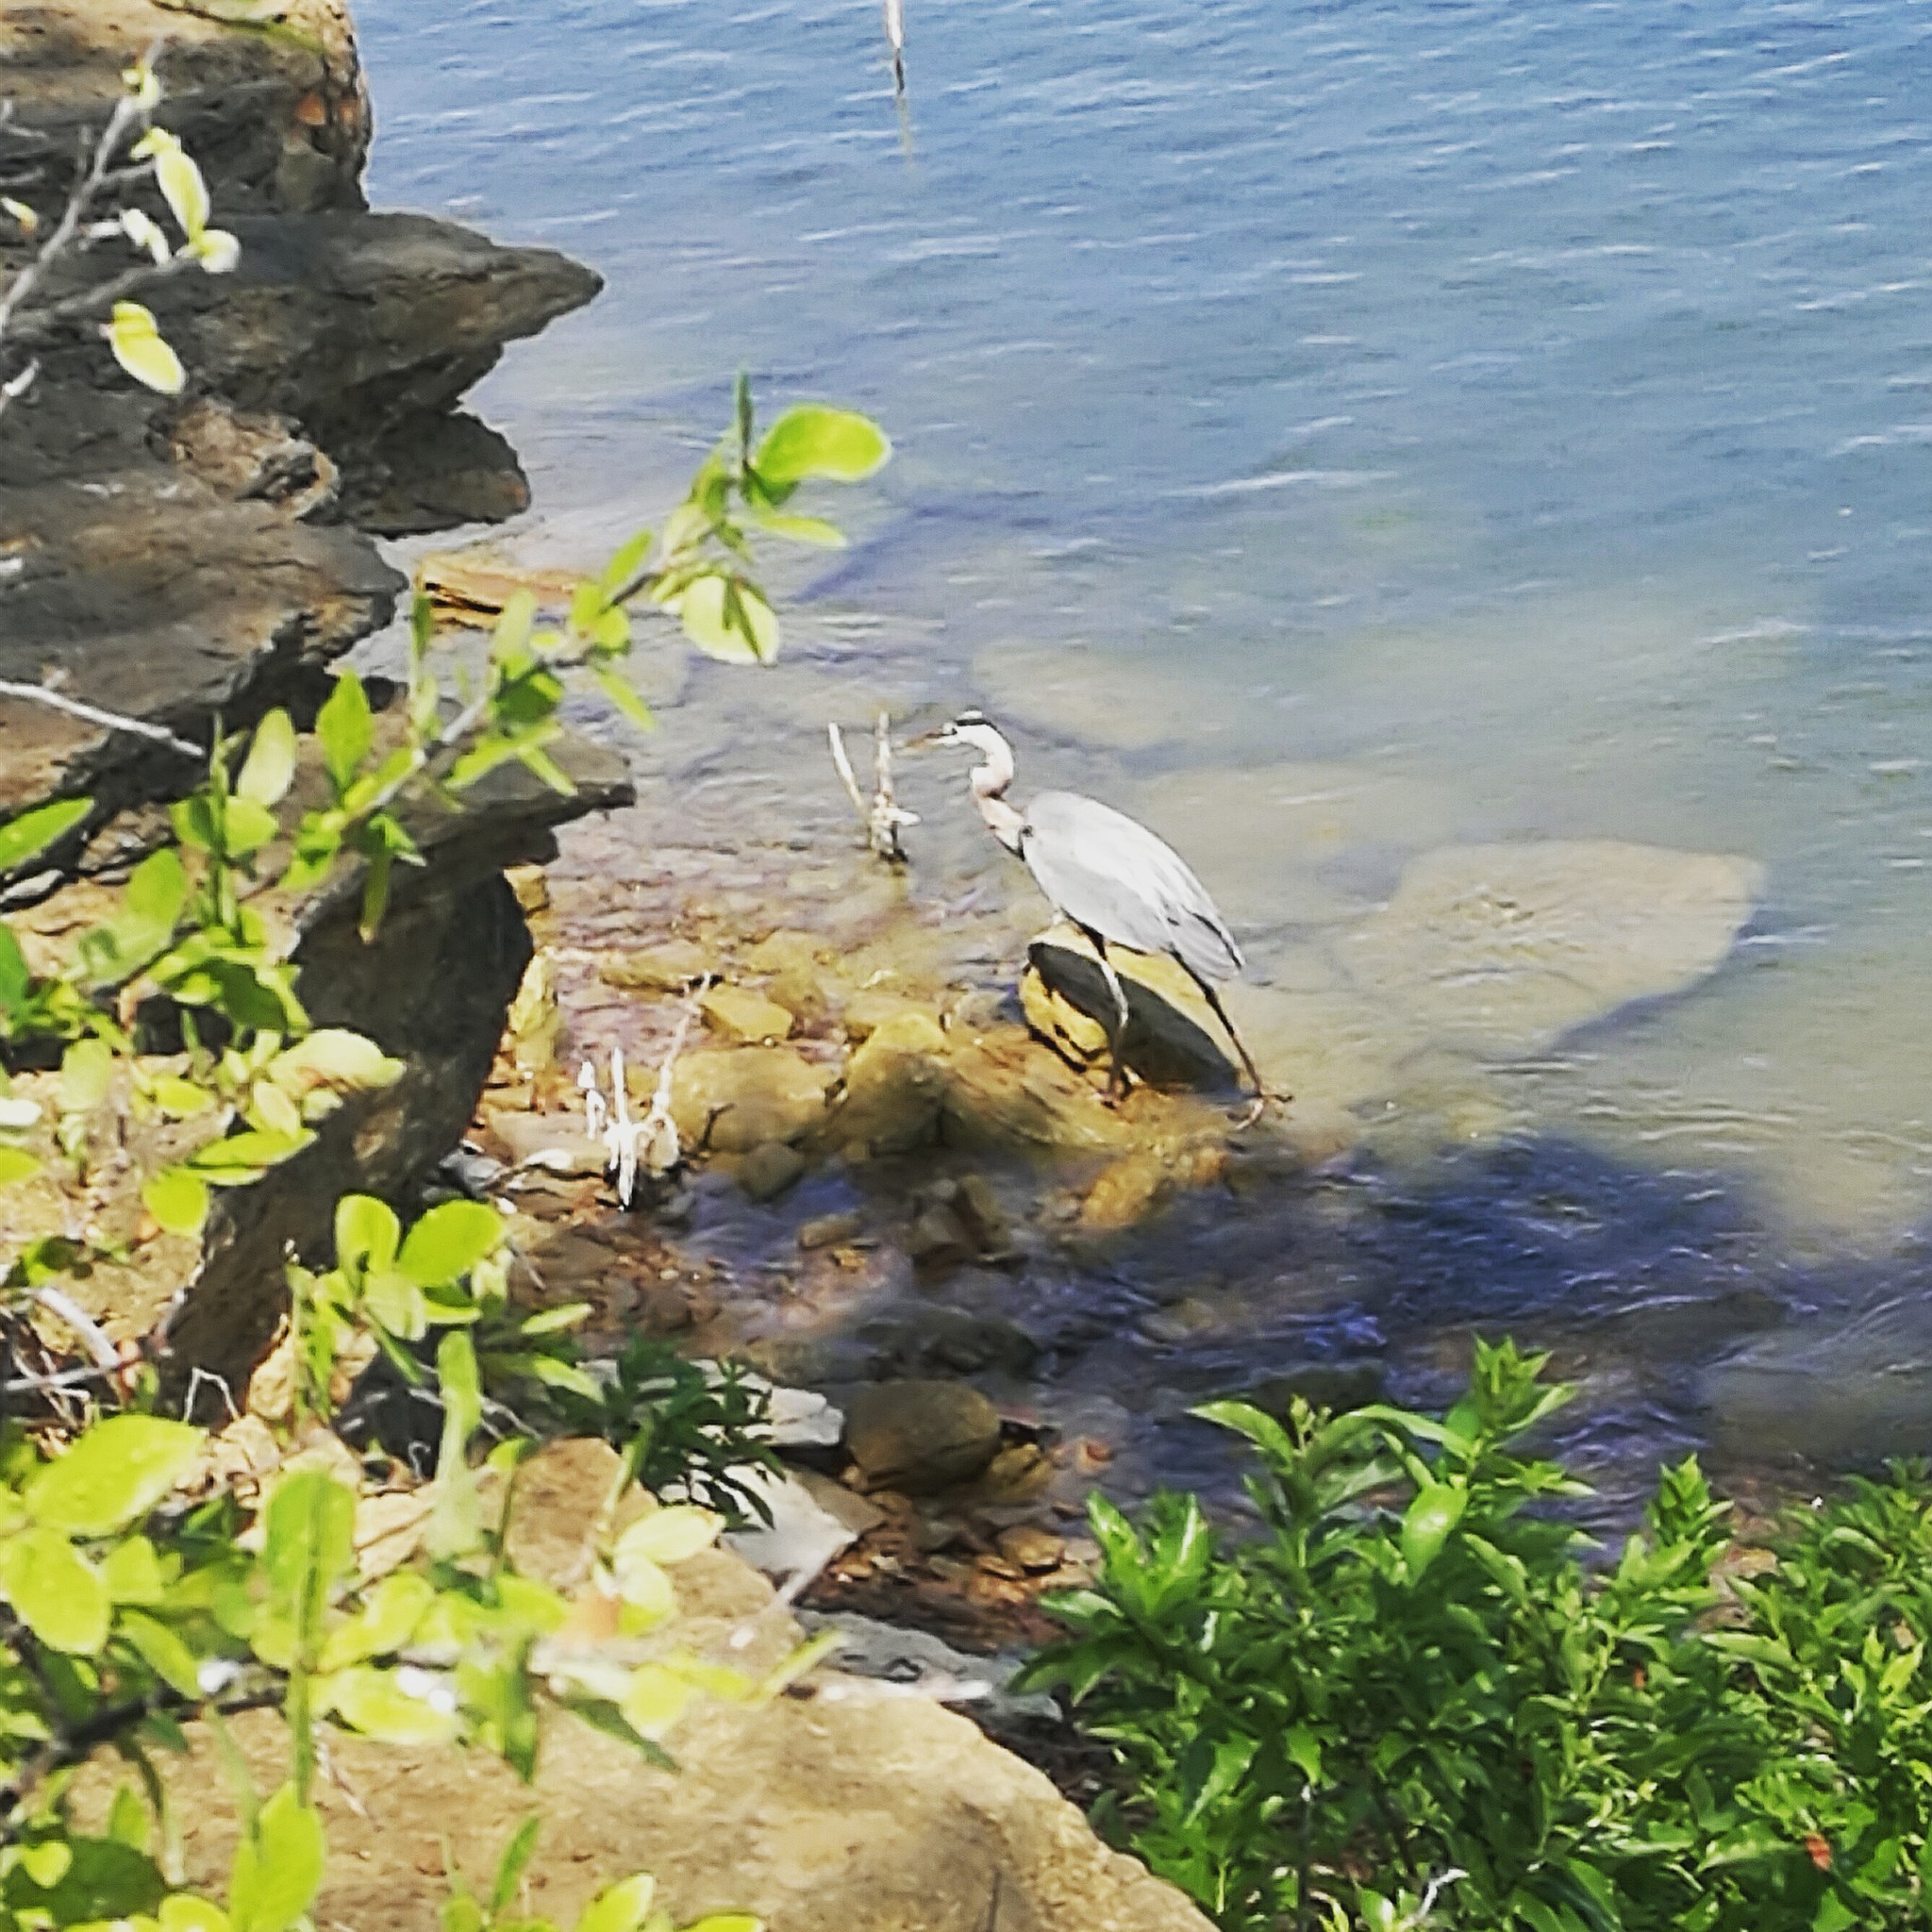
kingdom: Animalia
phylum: Chordata
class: Aves
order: Pelecaniformes
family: Ardeidae
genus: Ardea
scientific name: Ardea herodias
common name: Great blue heron
